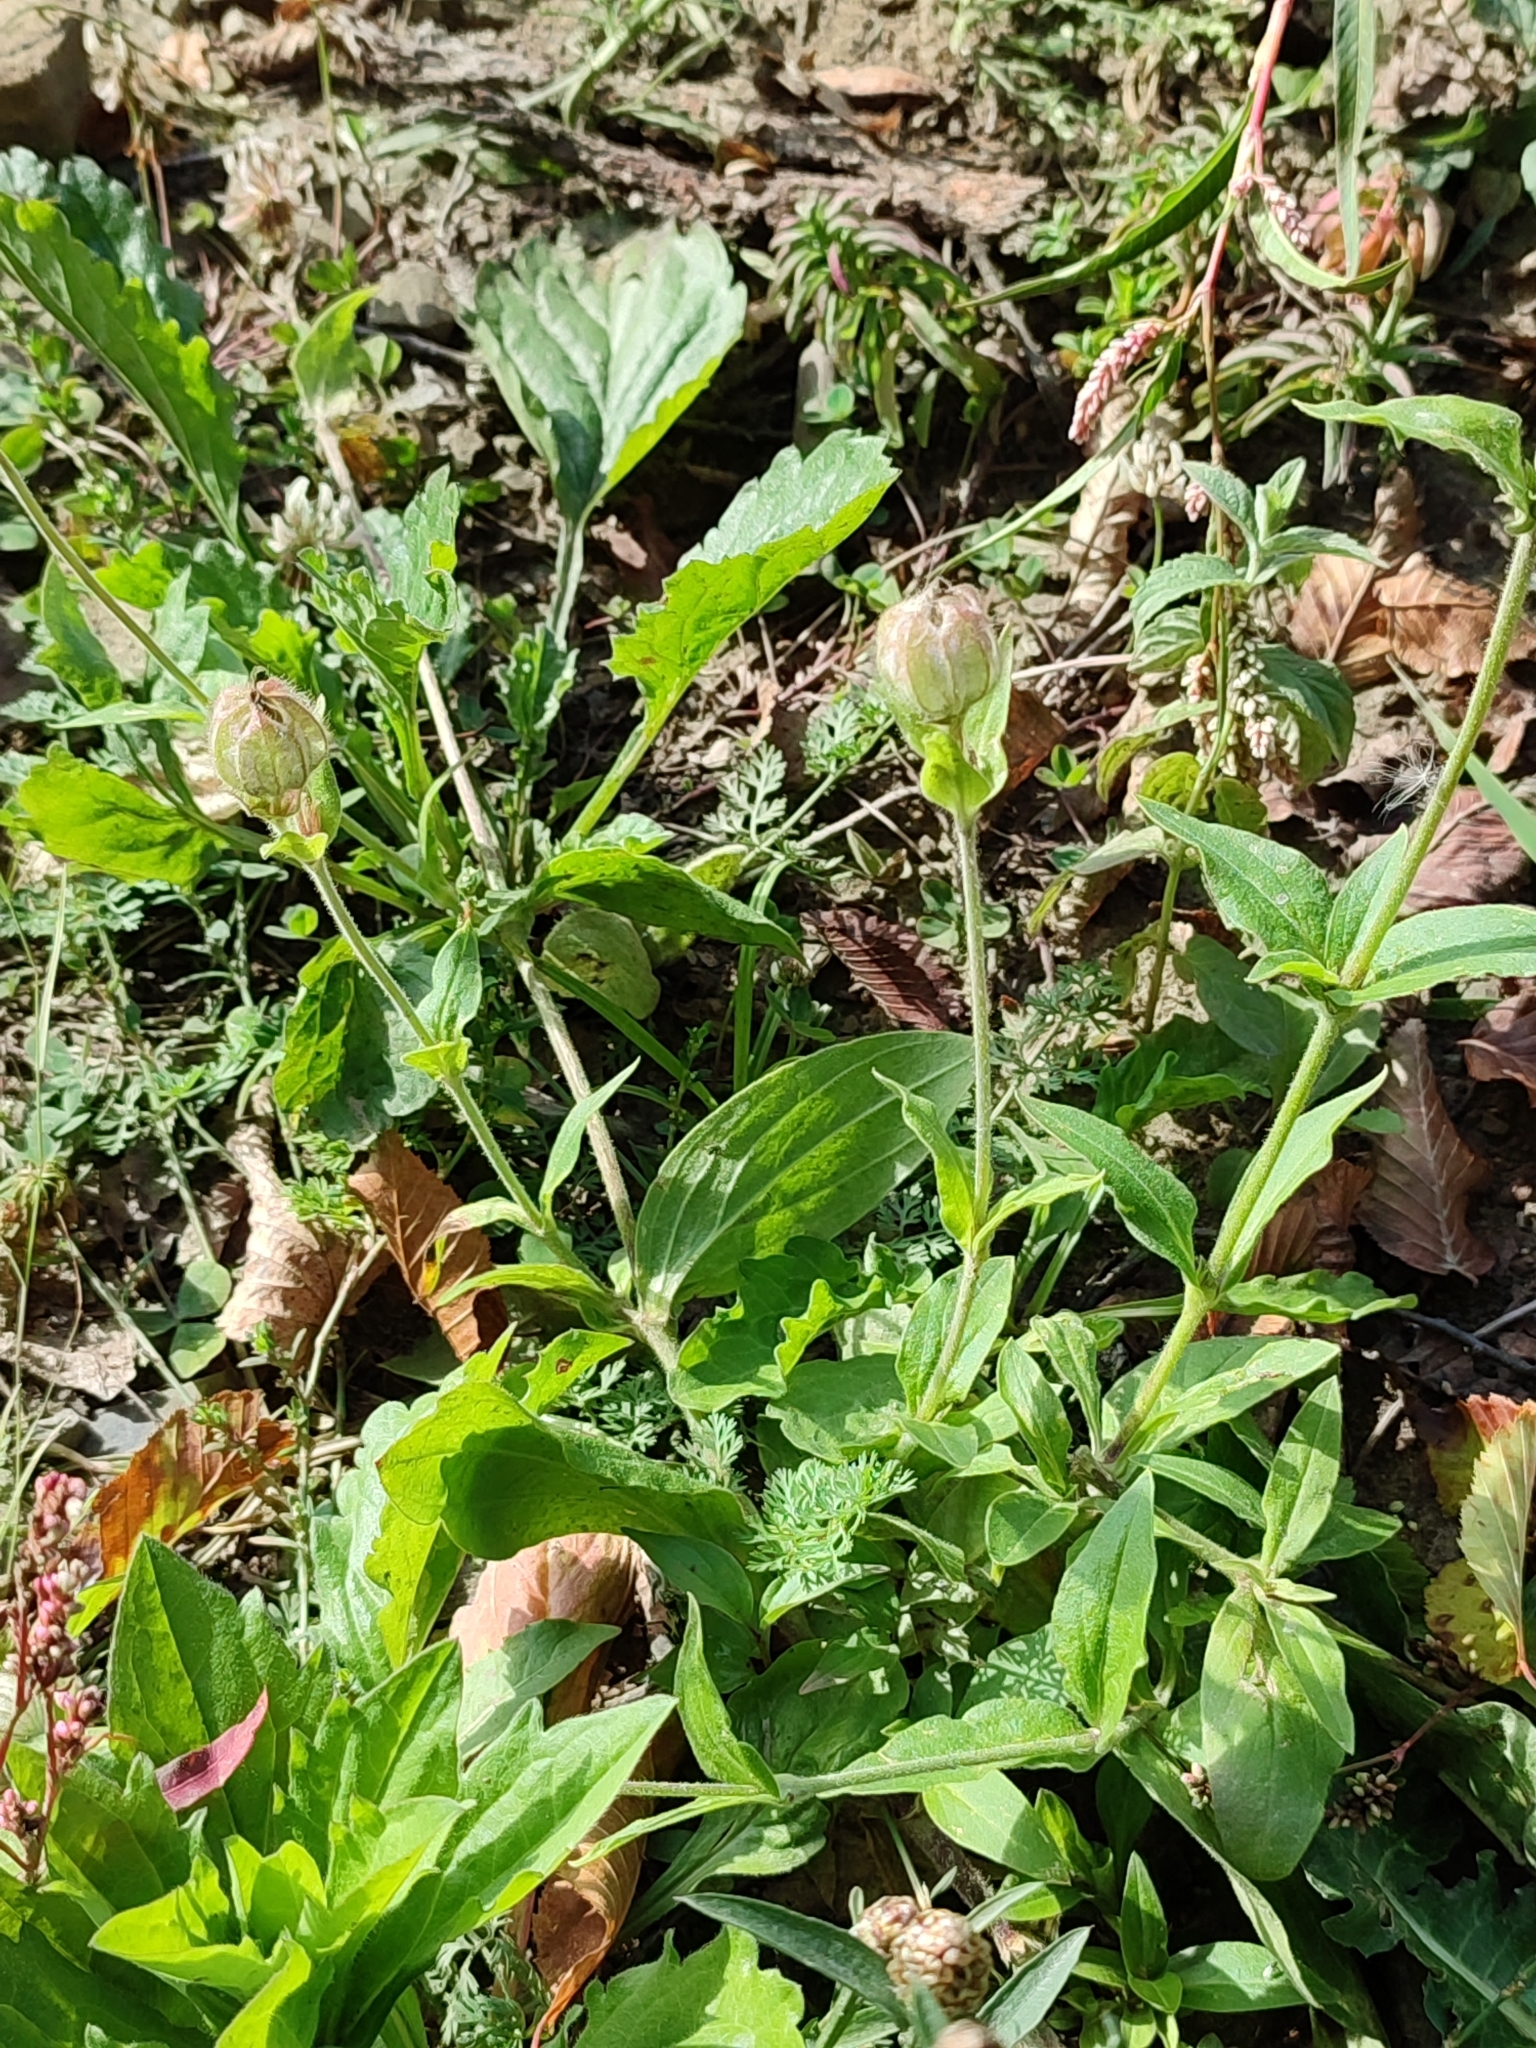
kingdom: Plantae
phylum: Tracheophyta
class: Magnoliopsida
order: Caryophyllales
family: Caryophyllaceae
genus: Silene
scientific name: Silene latifolia
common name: White campion
